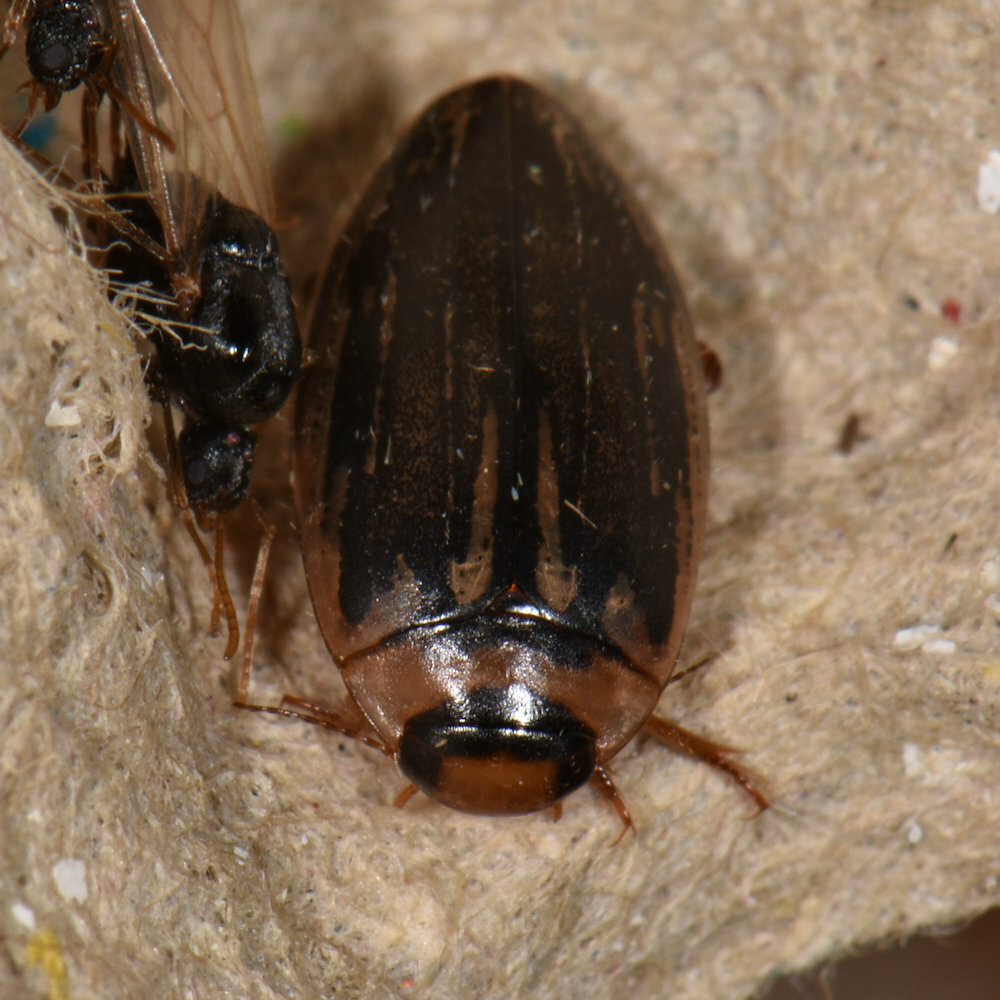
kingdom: Animalia
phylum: Arthropoda
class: Insecta
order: Coleoptera
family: Dytiscidae
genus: Coptotomus
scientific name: Coptotomus longulus
